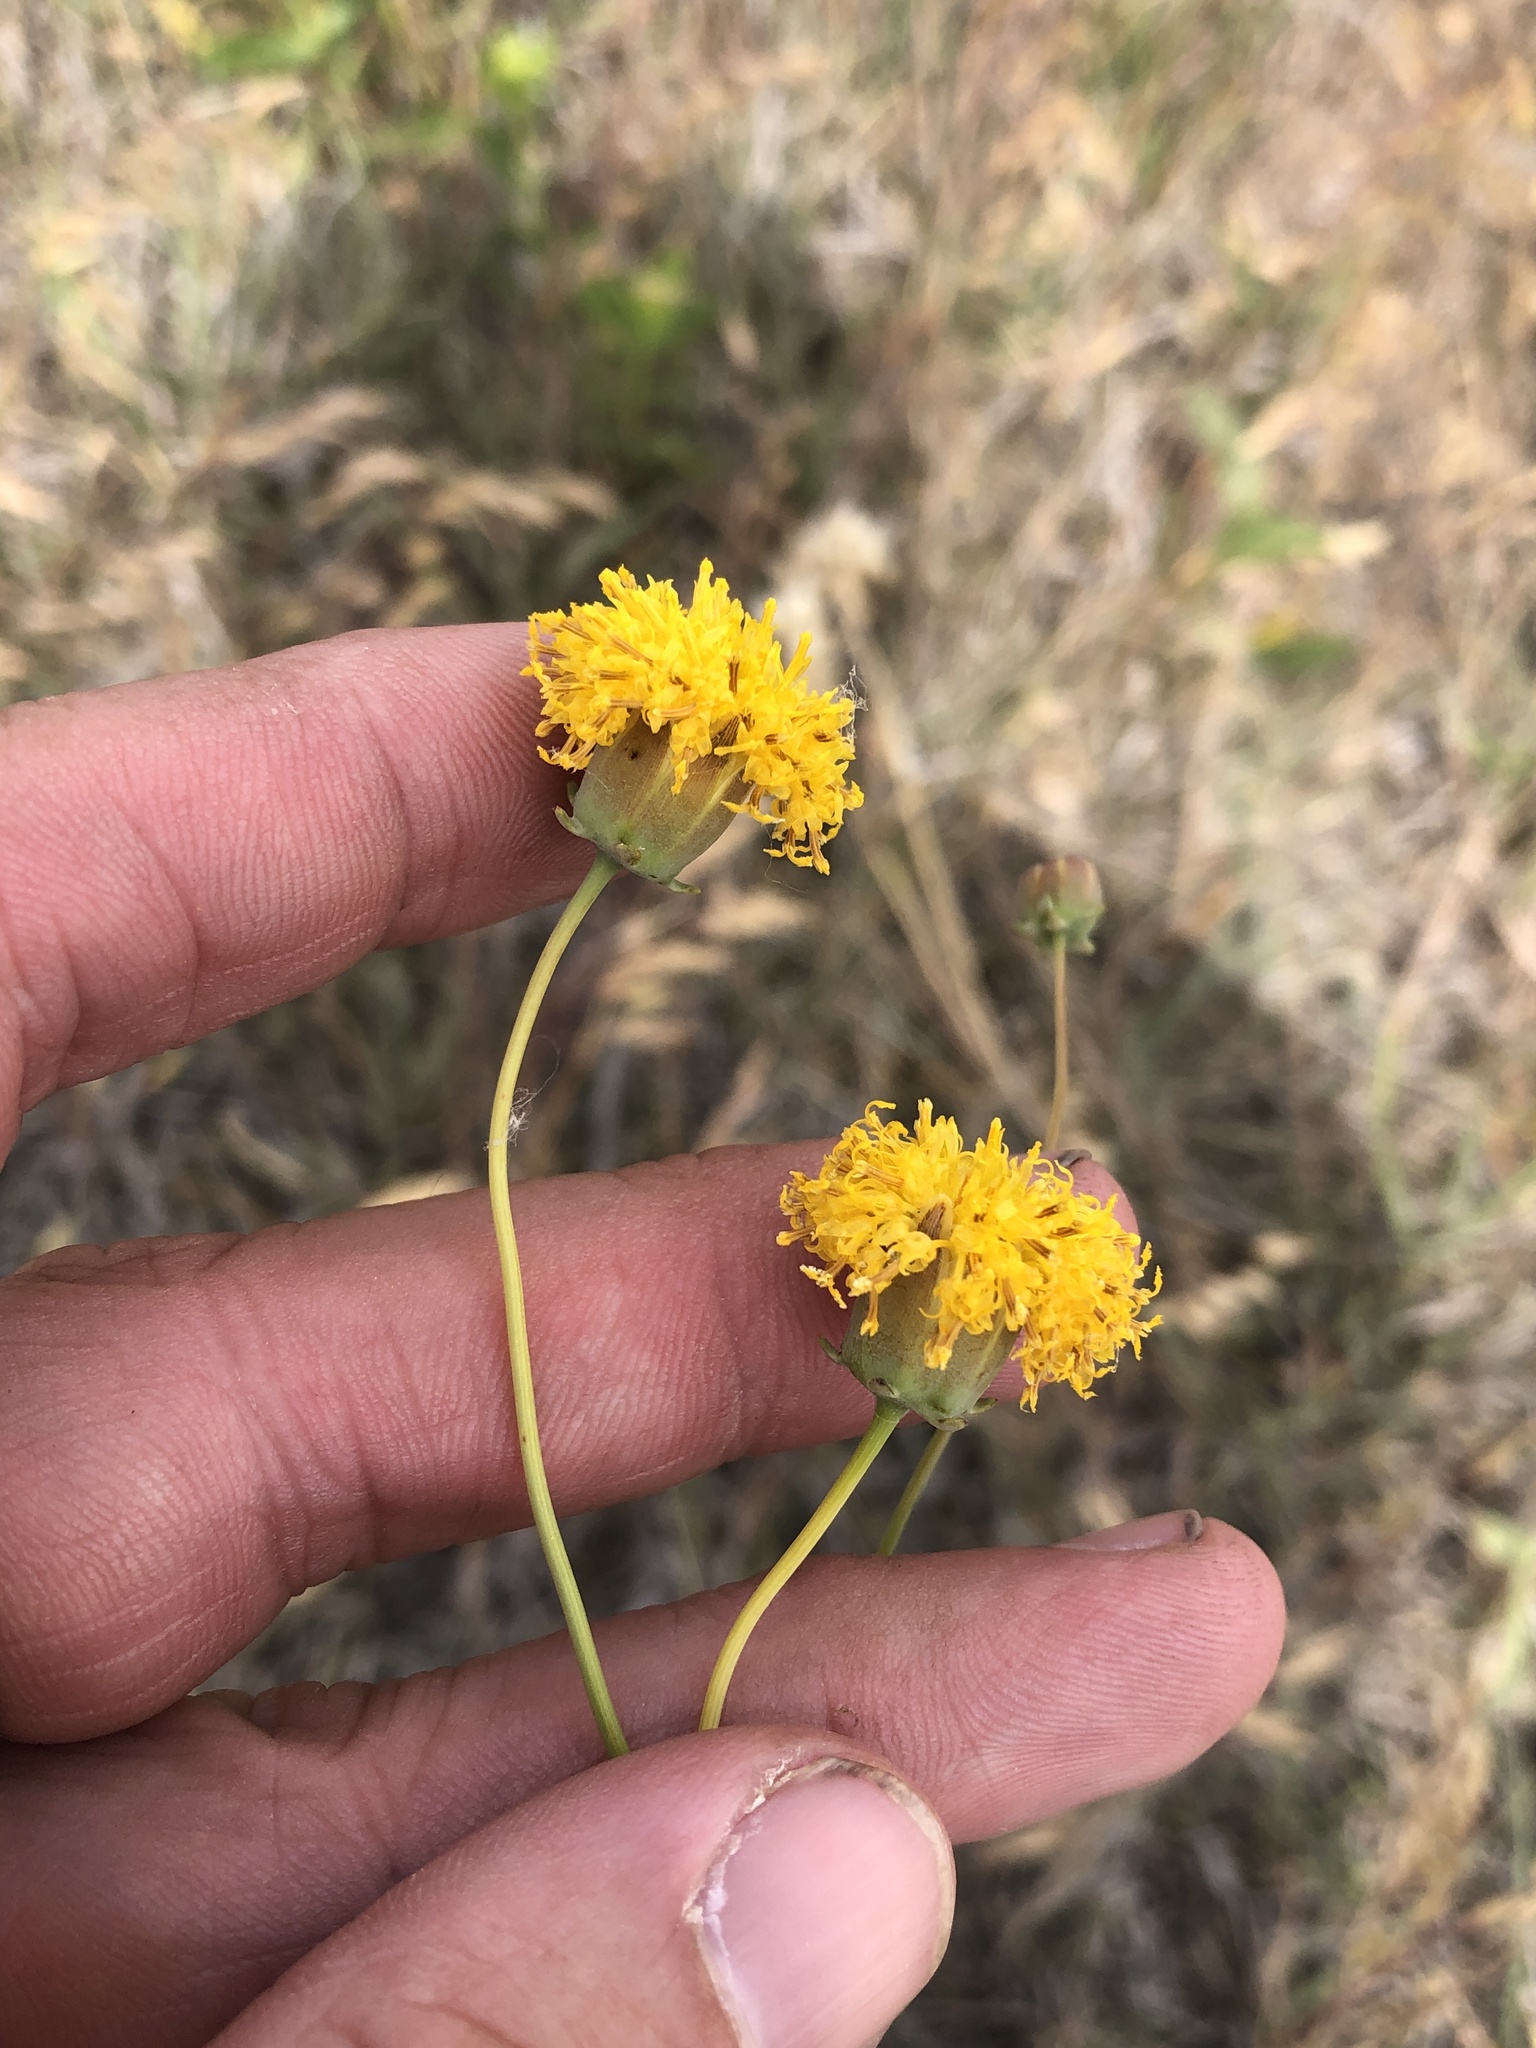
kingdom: Plantae
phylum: Tracheophyta
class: Magnoliopsida
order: Asterales
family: Asteraceae
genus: Thelesperma
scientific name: Thelesperma megapotamicum
